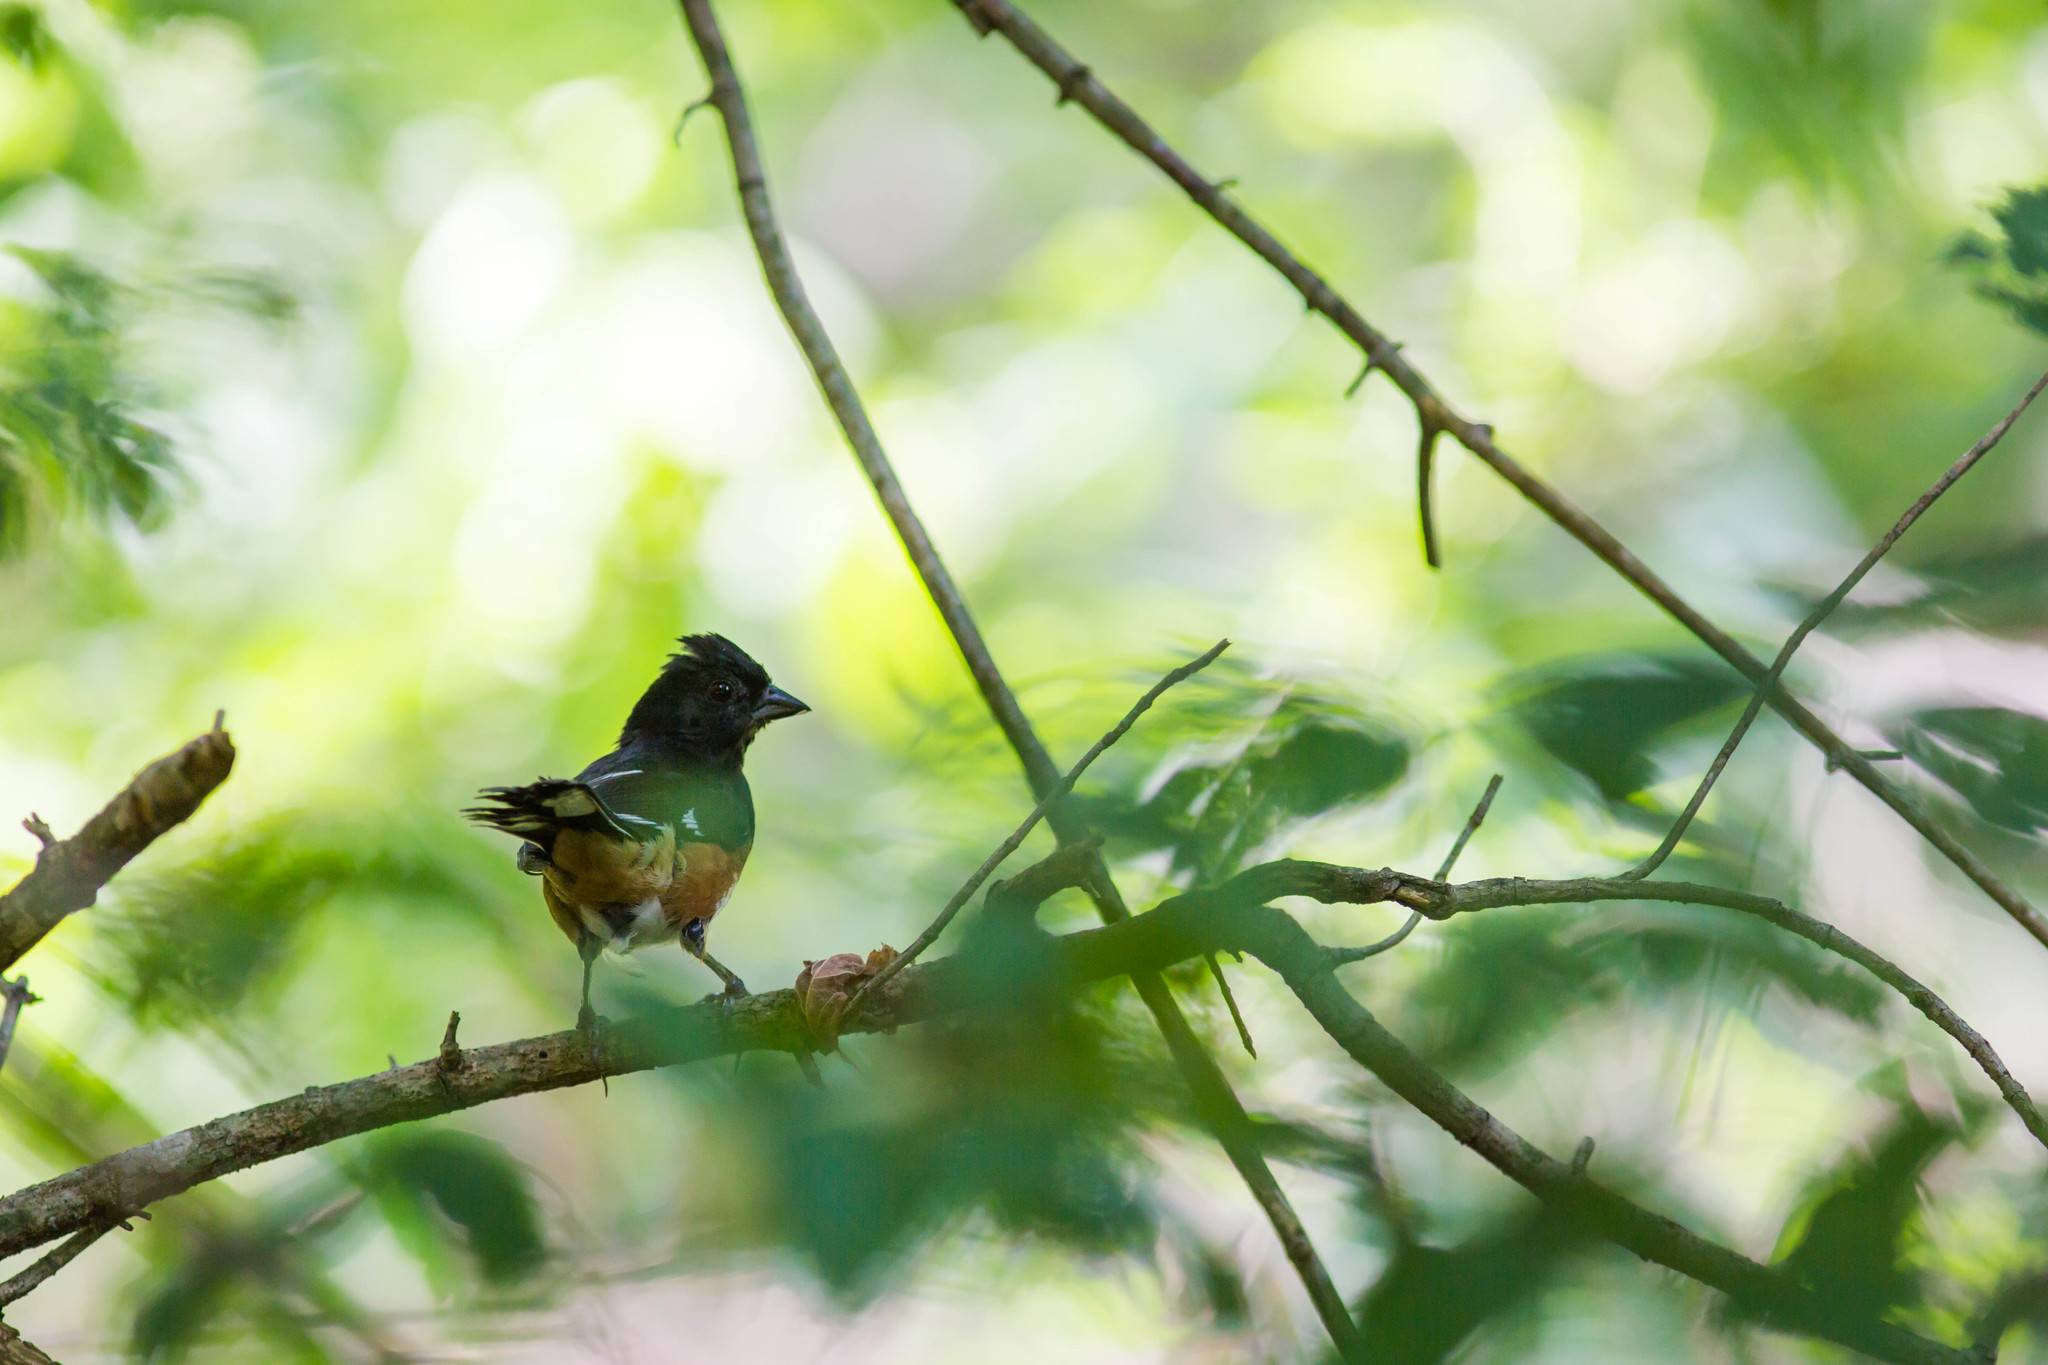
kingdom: Animalia
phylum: Chordata
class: Aves
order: Passeriformes
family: Passerellidae
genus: Pipilo
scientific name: Pipilo erythrophthalmus
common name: Eastern towhee
